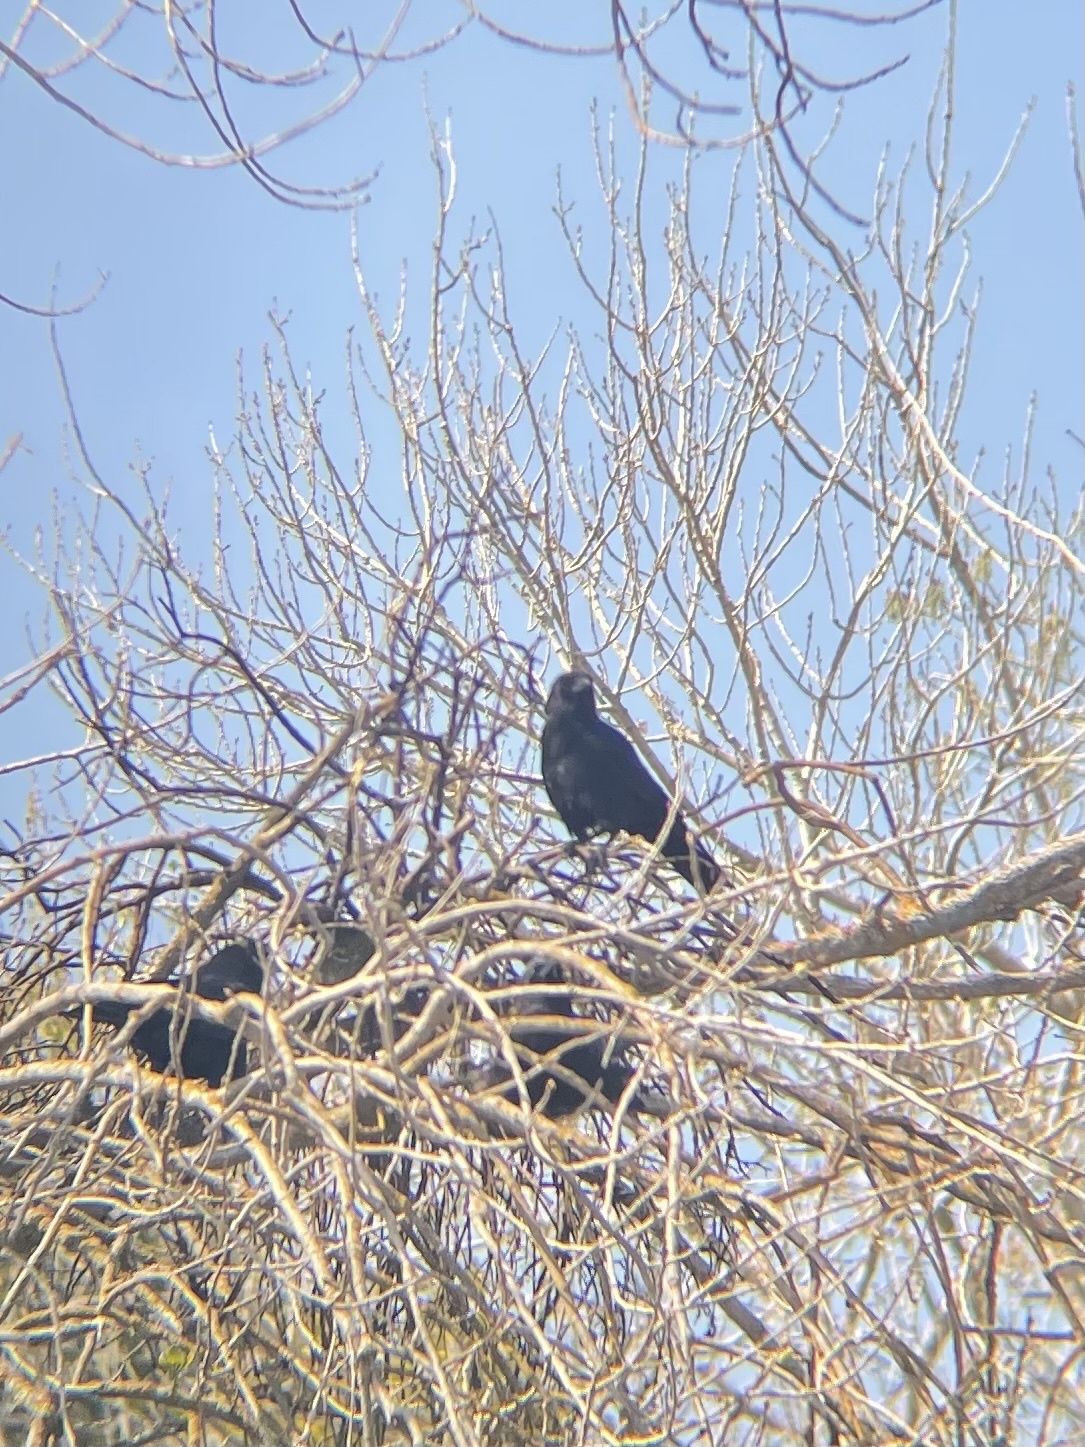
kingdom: Animalia
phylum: Chordata
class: Aves
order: Passeriformes
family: Corvidae
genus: Corvus
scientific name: Corvus brachyrhynchos
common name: American crow
